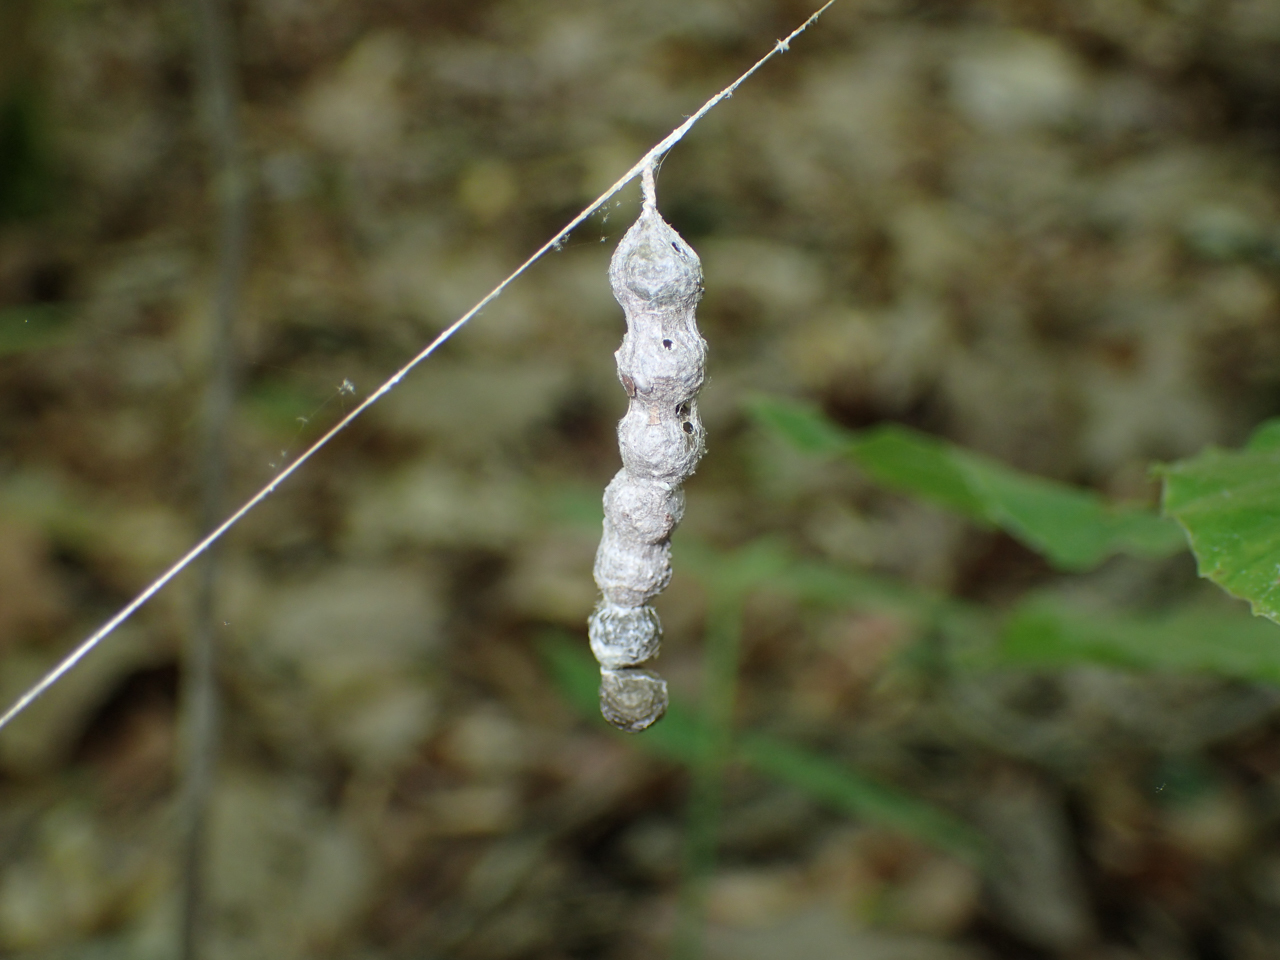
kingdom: Animalia
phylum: Arthropoda
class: Arachnida
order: Araneae
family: Araneidae
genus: Mecynogea
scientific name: Mecynogea lemniscata
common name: Orb weavers
